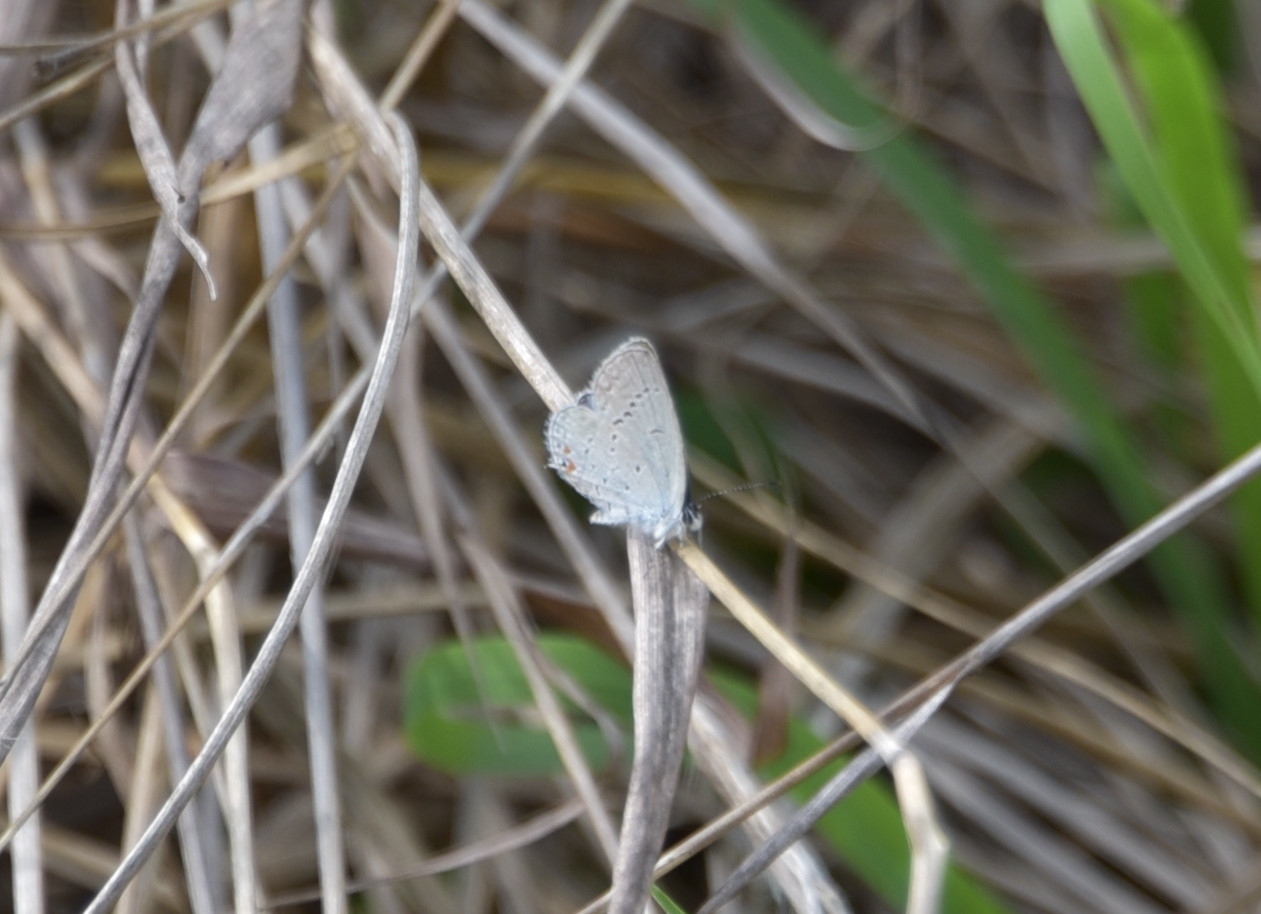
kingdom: Animalia
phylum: Arthropoda
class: Insecta
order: Lepidoptera
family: Lycaenidae
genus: Elkalyce
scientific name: Elkalyce comyntas
